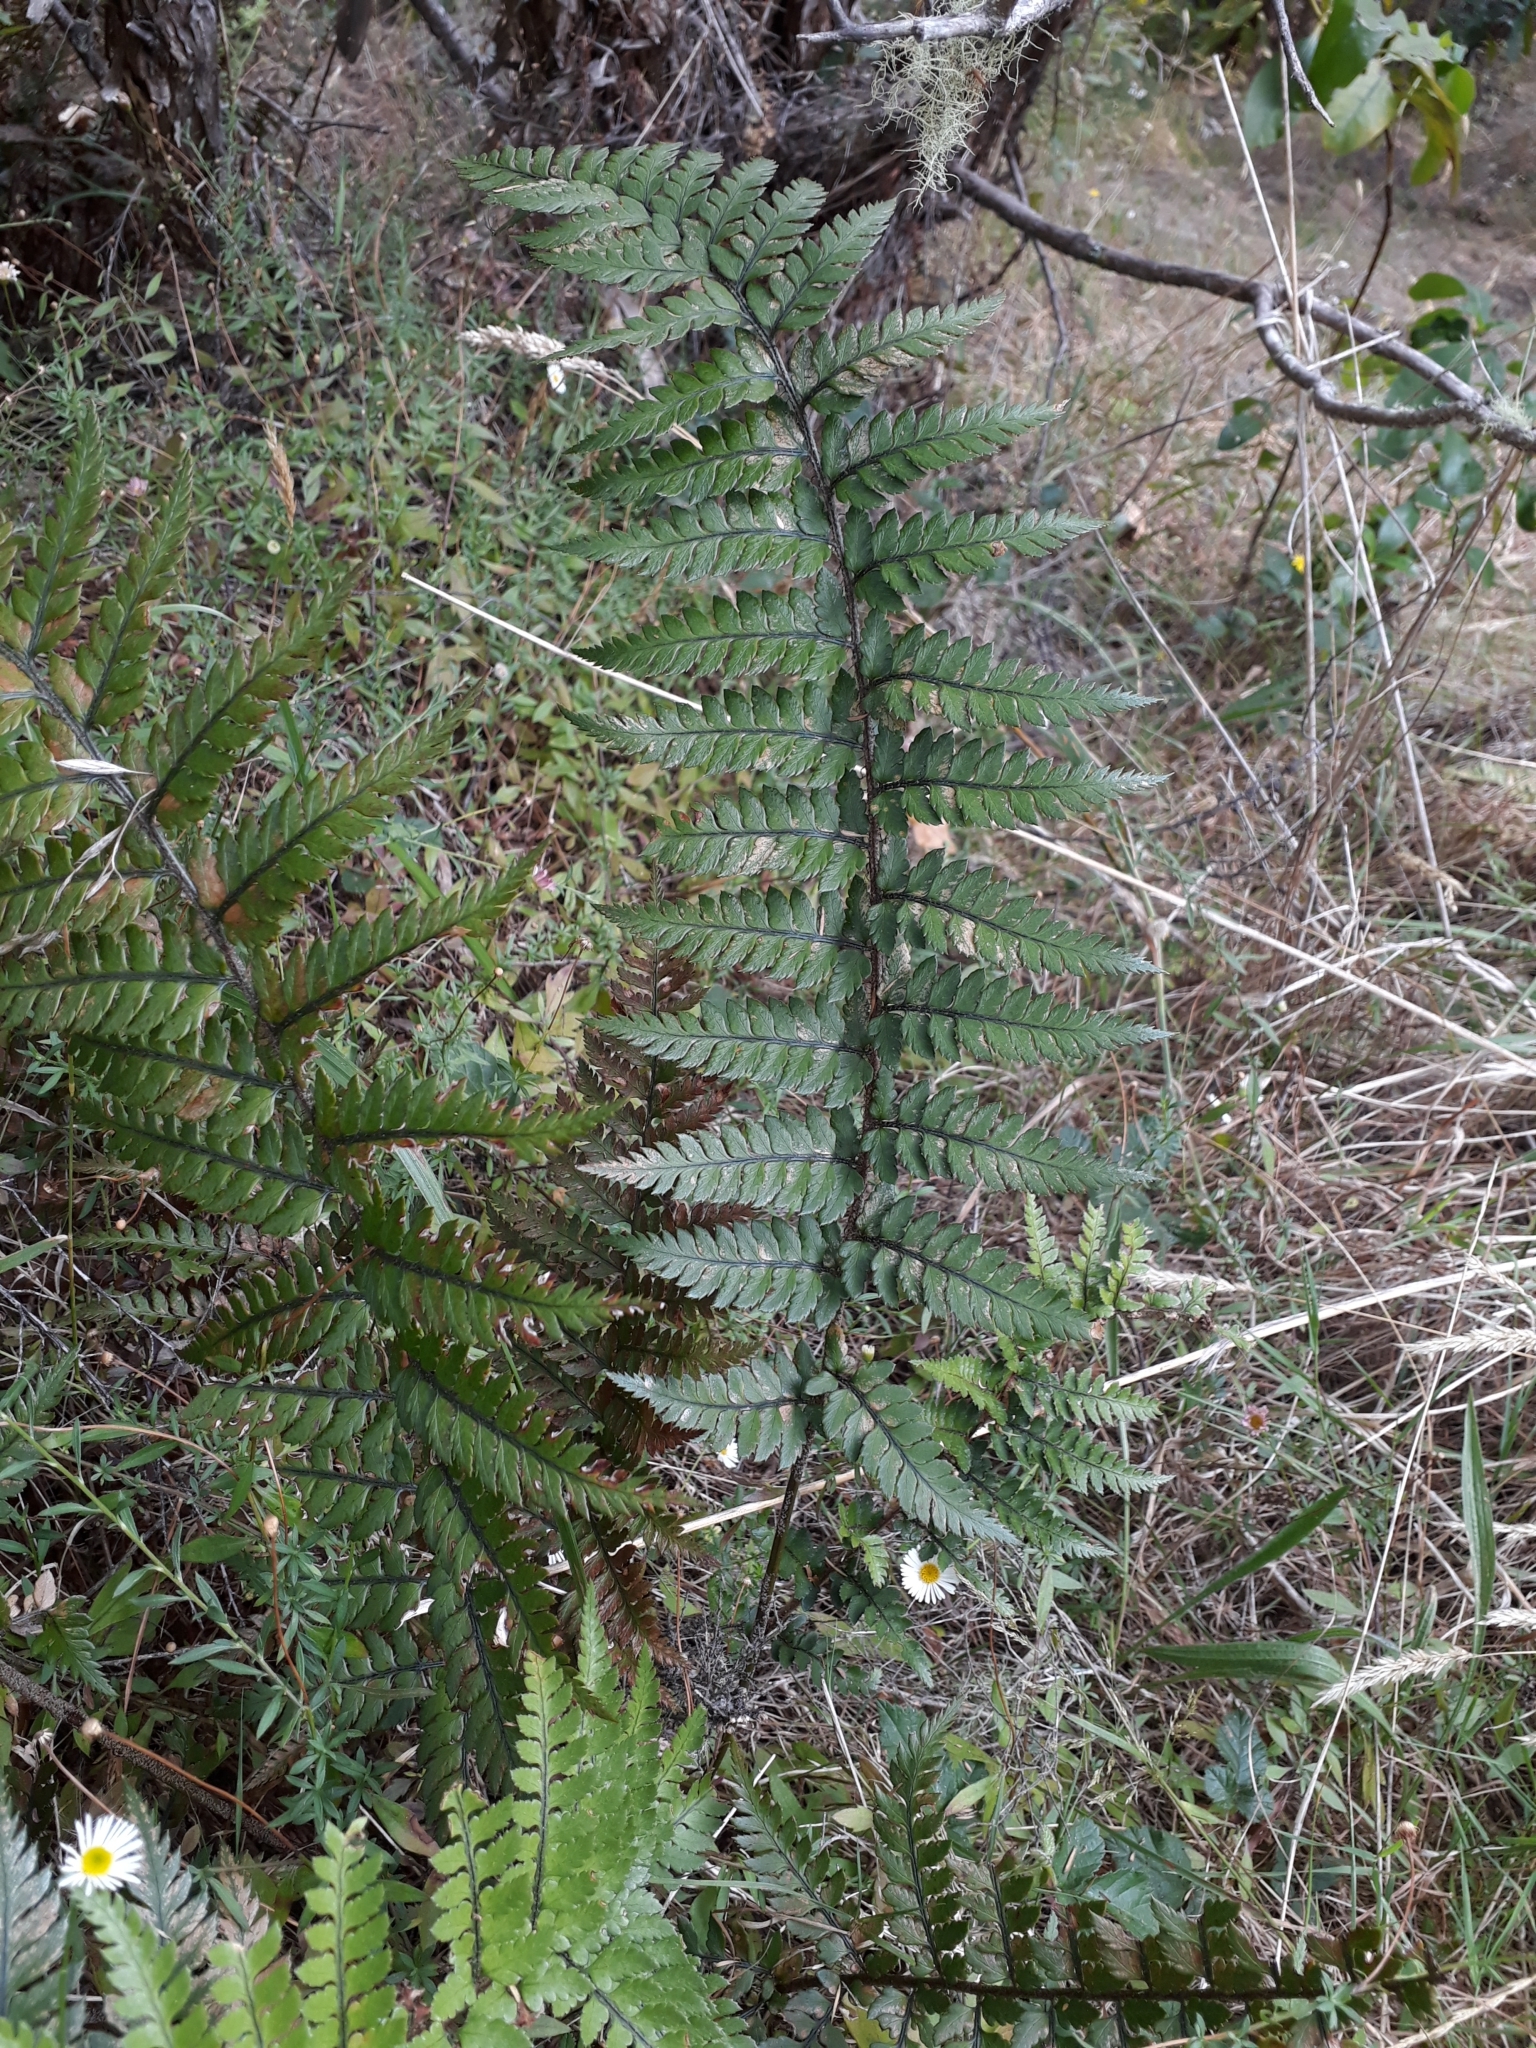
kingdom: Plantae
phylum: Tracheophyta
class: Polypodiopsida
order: Polypodiales
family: Dryopteridaceae
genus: Polystichum
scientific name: Polystichum neozelandicum
